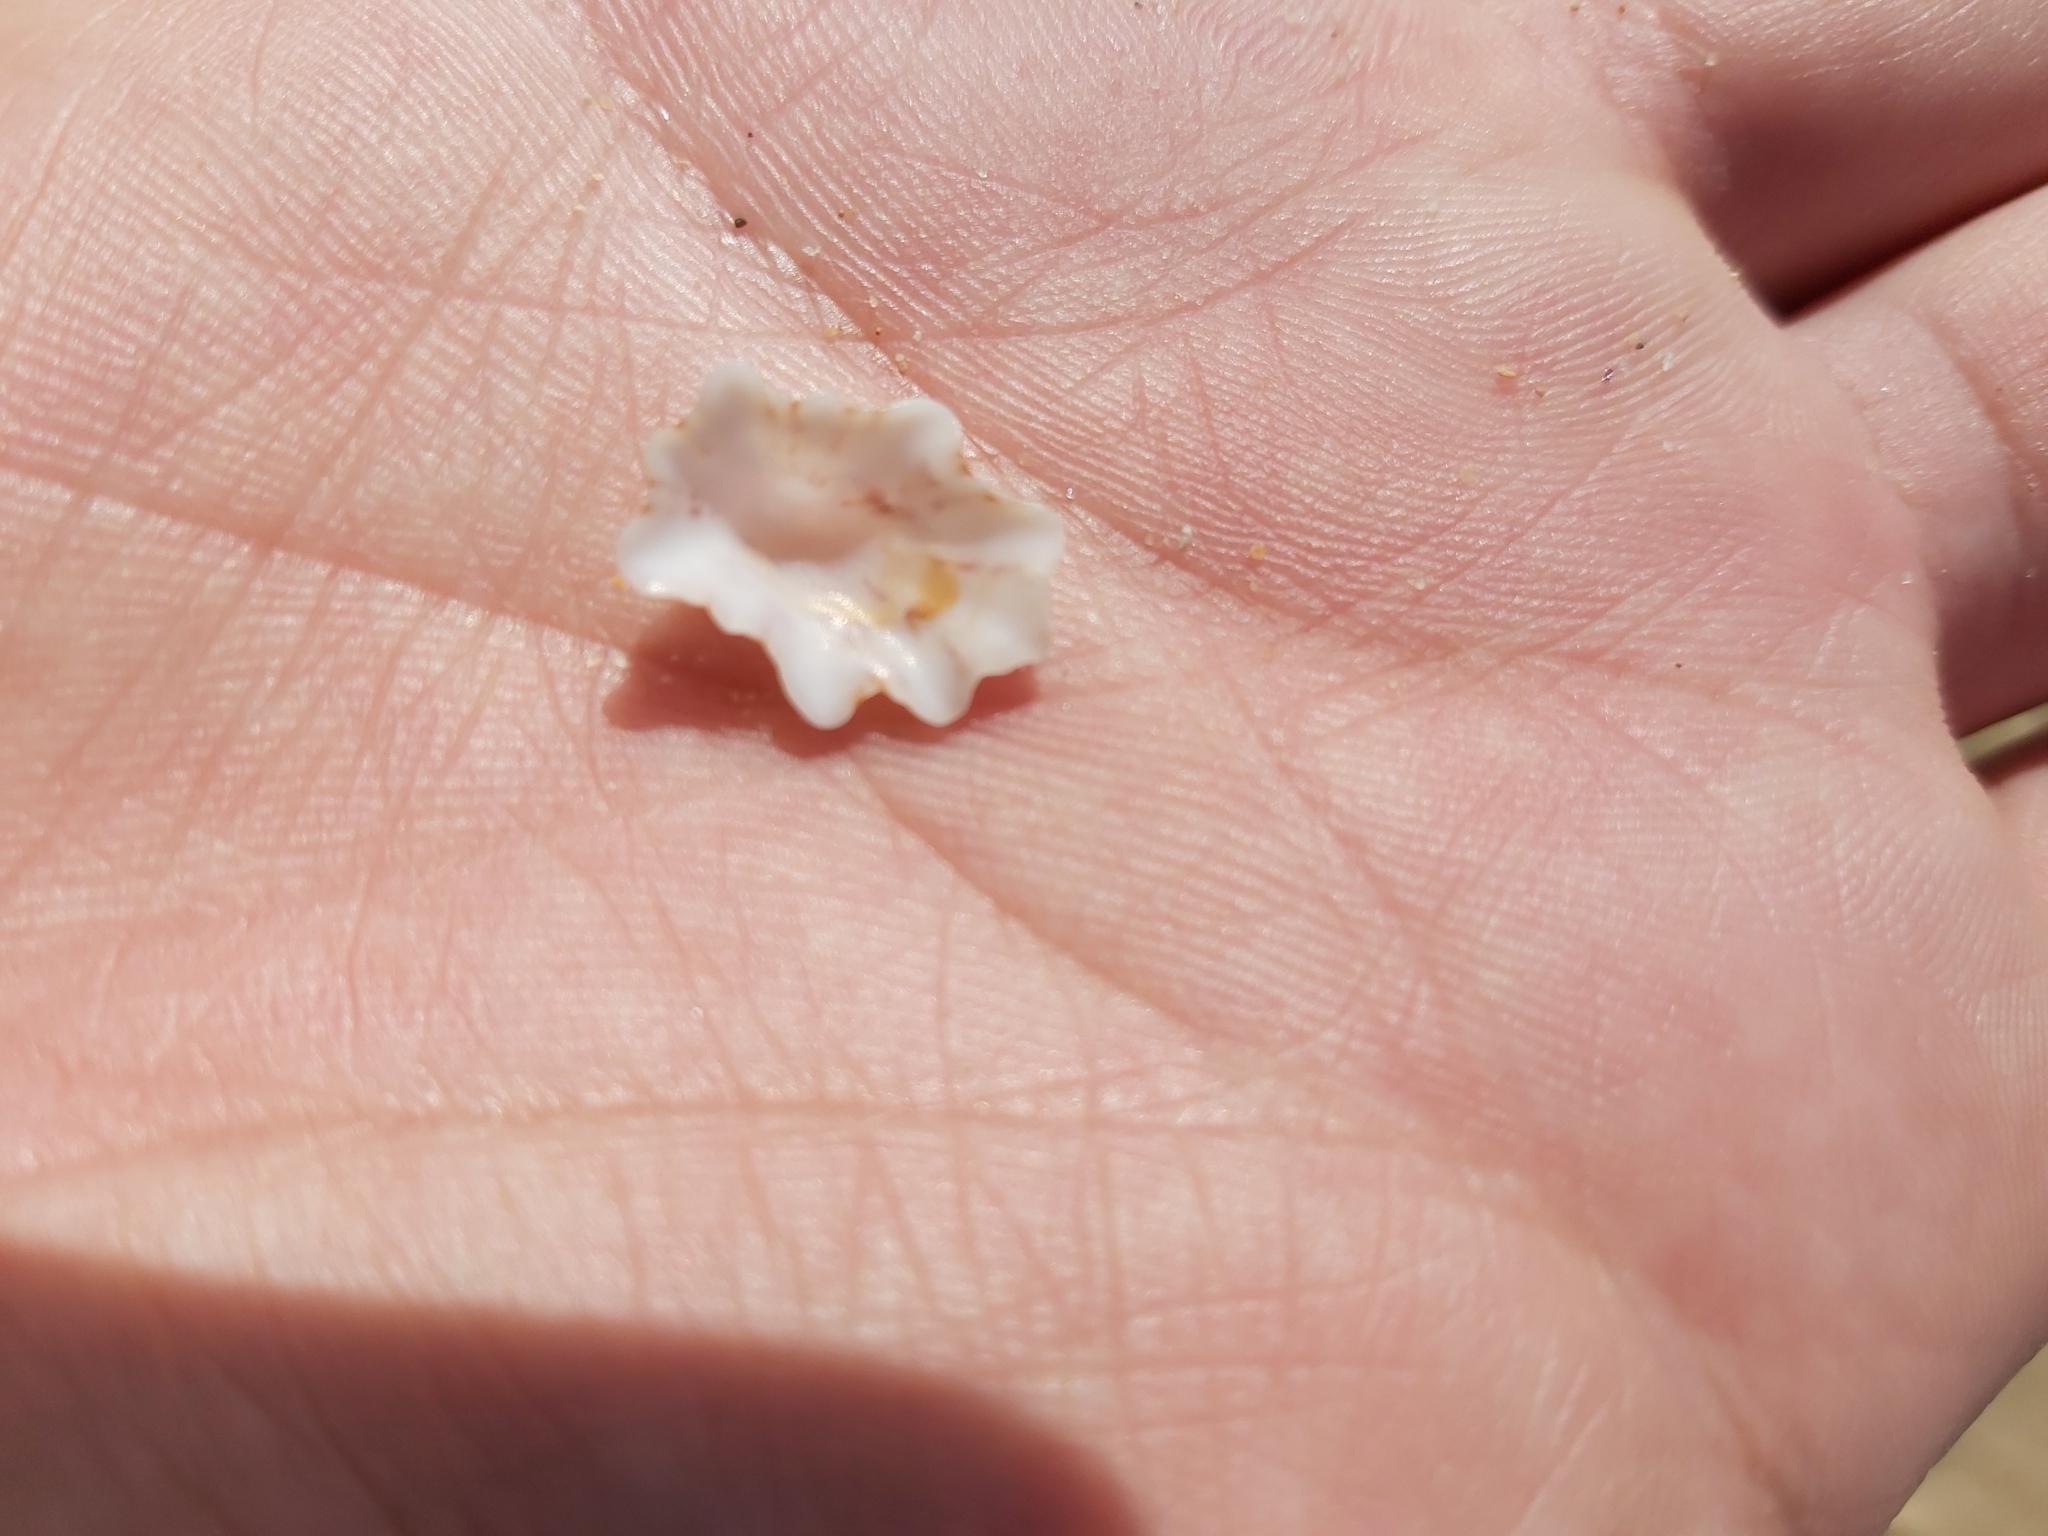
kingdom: Animalia
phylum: Mollusca
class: Gastropoda
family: Patellidae
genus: Scutellastra
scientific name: Scutellastra chapmani
